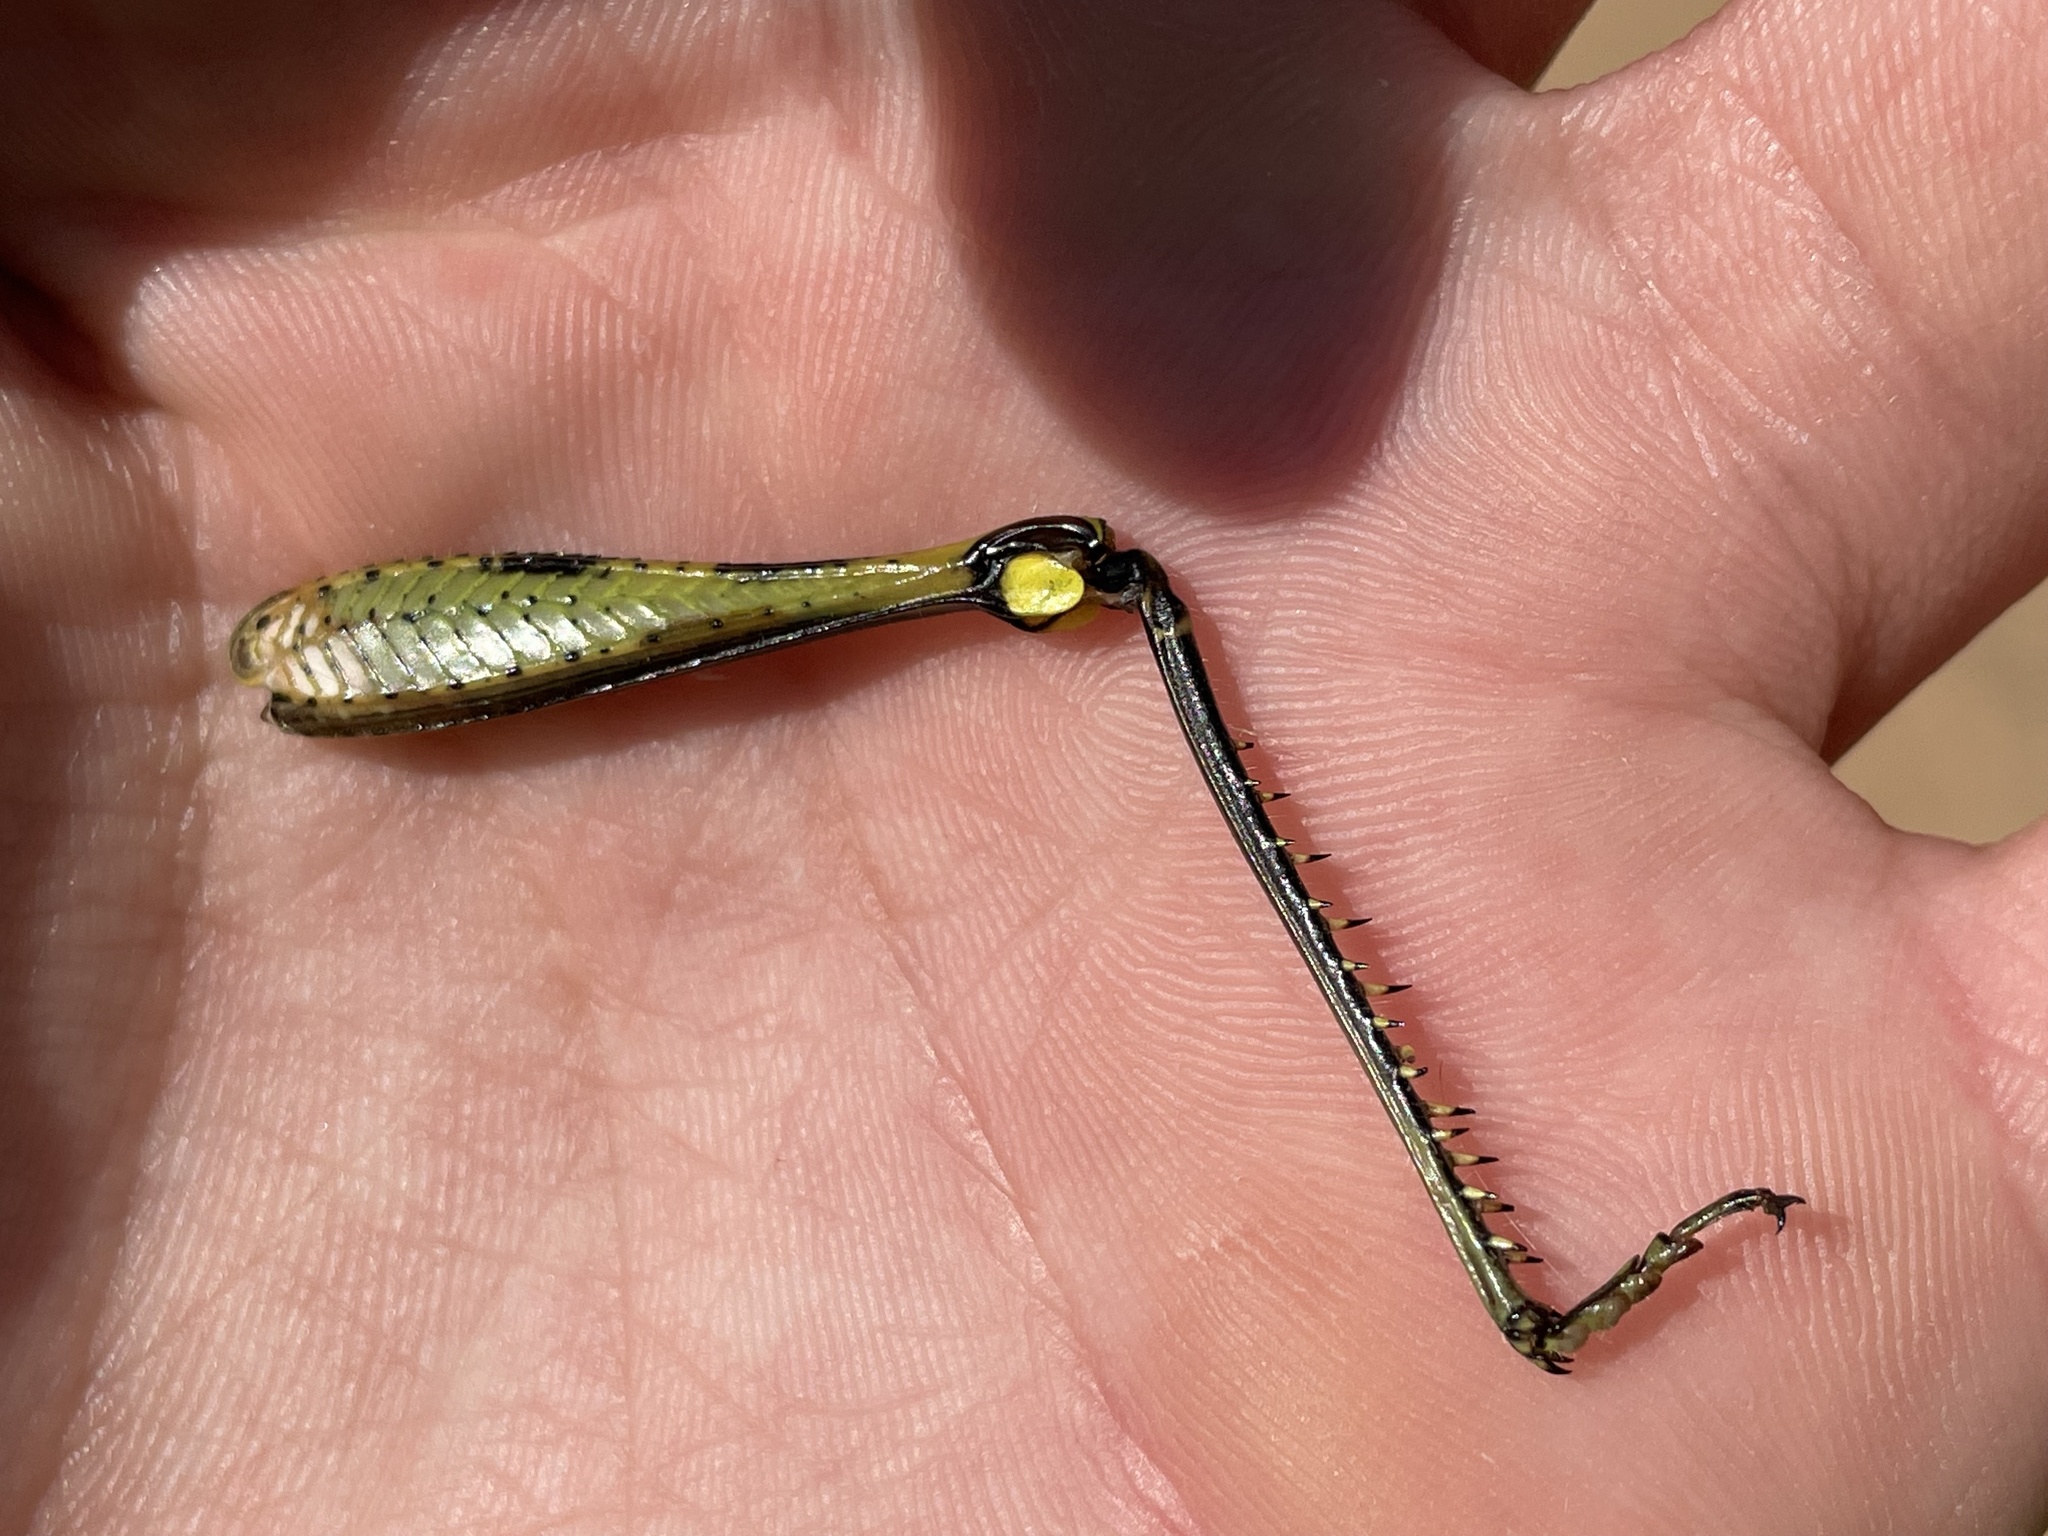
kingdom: Animalia
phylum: Arthropoda
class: Insecta
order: Orthoptera
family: Acrididae
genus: Schistocerca
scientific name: Schistocerca obscura
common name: Obscure bird grasshopper
